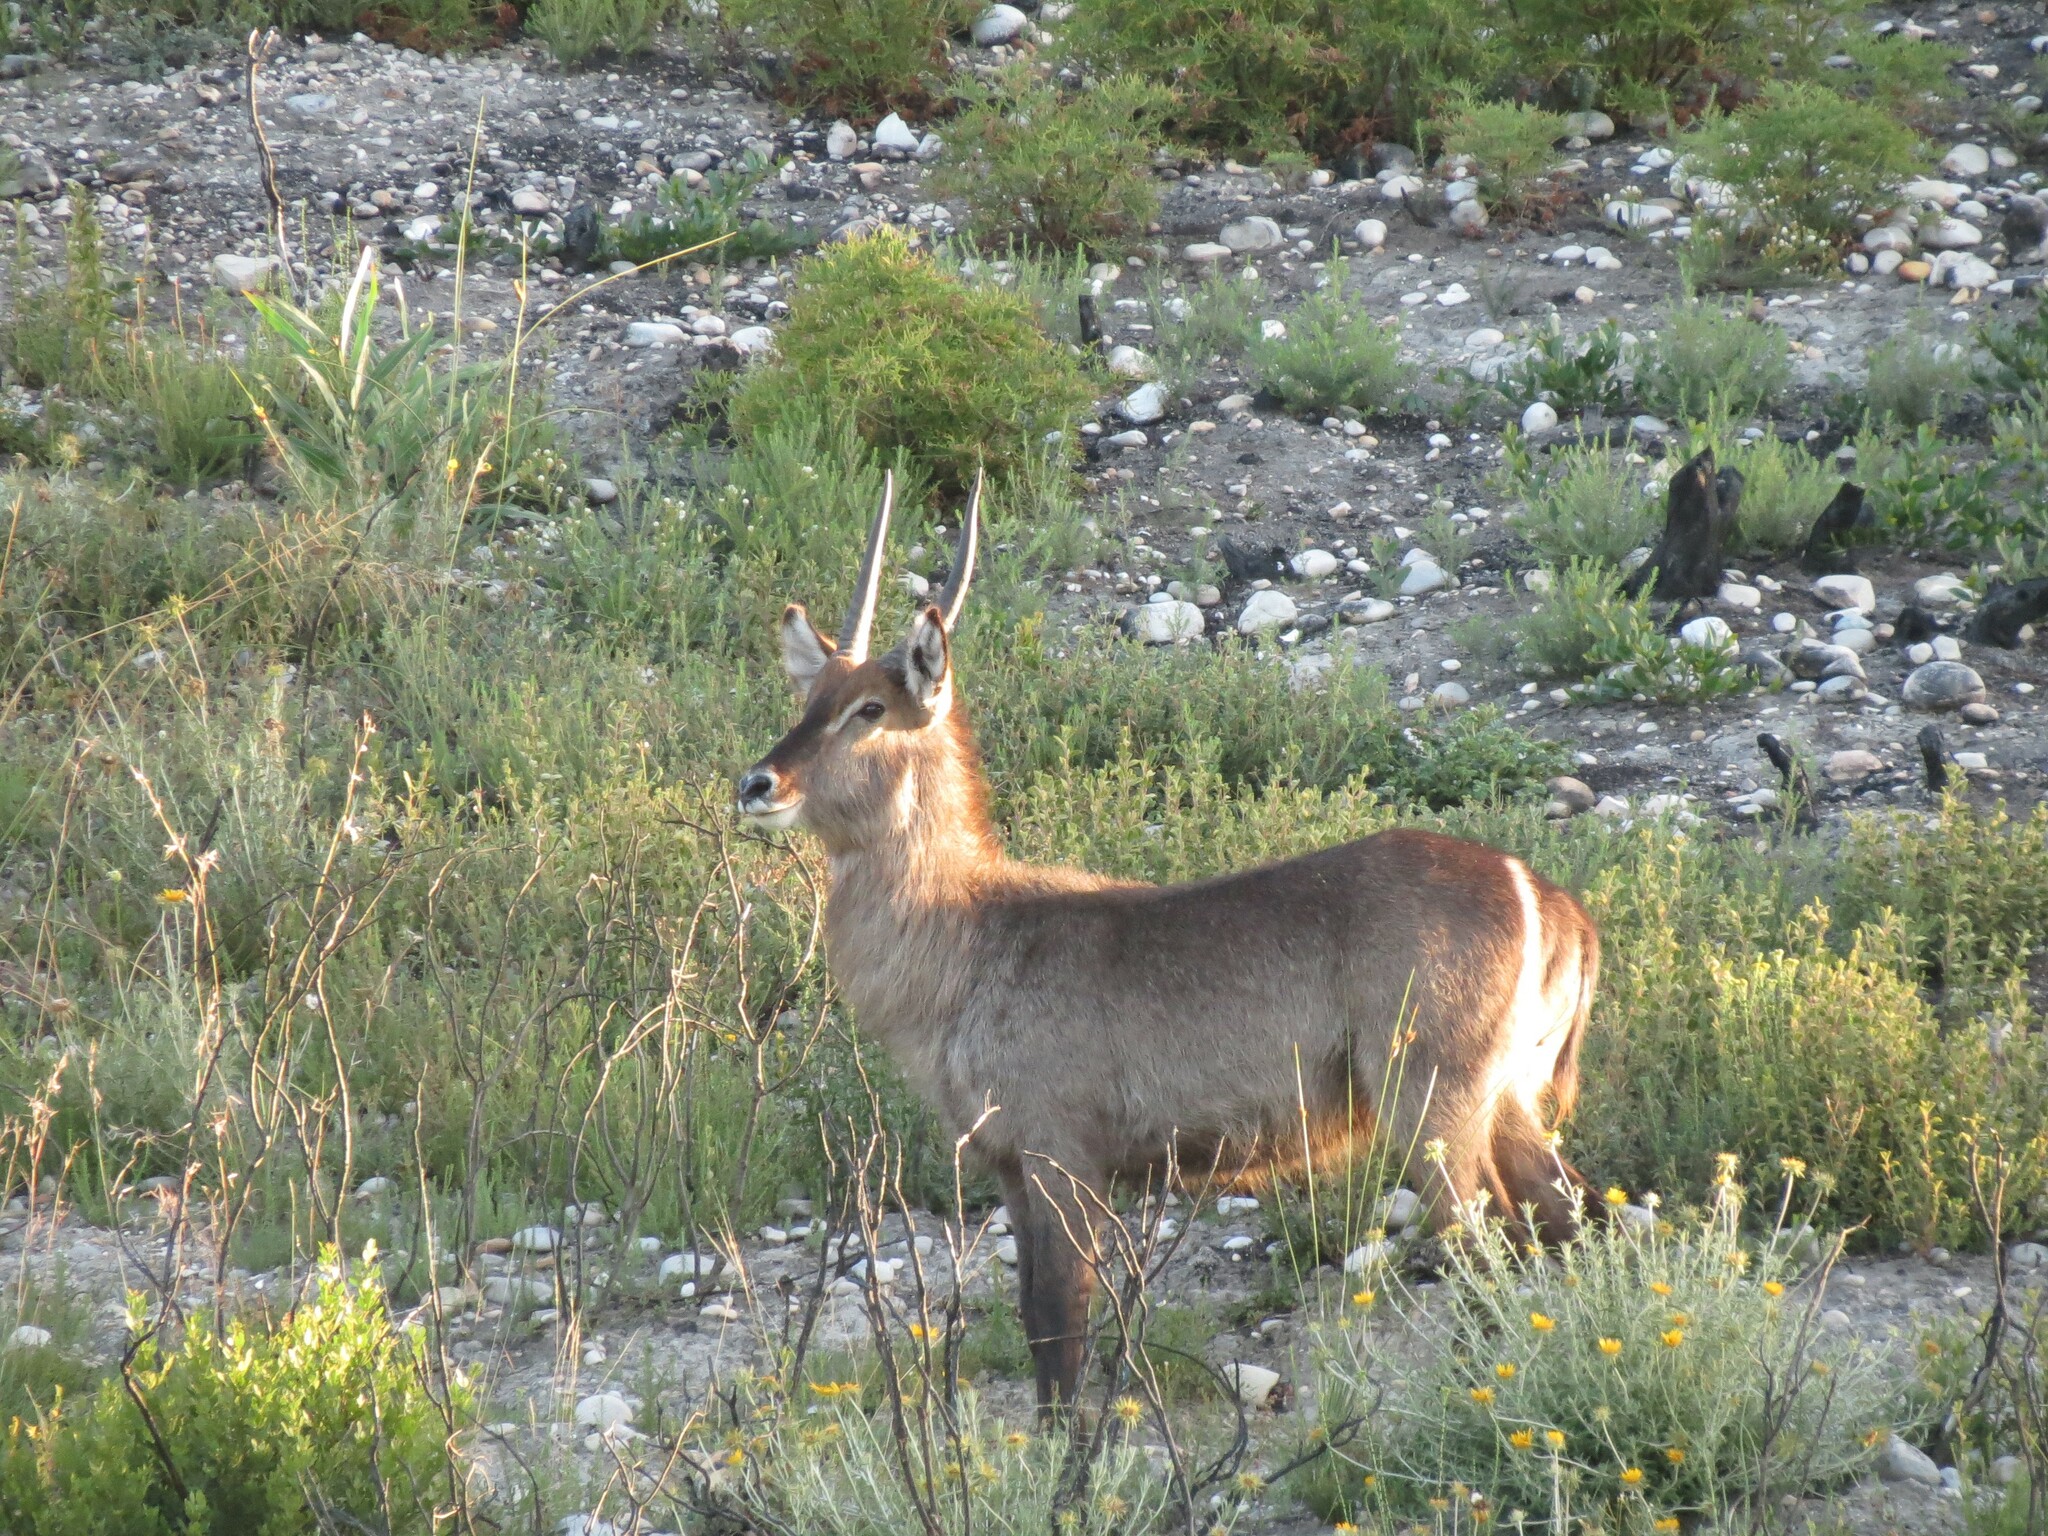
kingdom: Animalia
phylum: Chordata
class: Mammalia
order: Artiodactyla
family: Bovidae
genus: Kobus
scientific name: Kobus ellipsiprymnus
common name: Waterbuck
